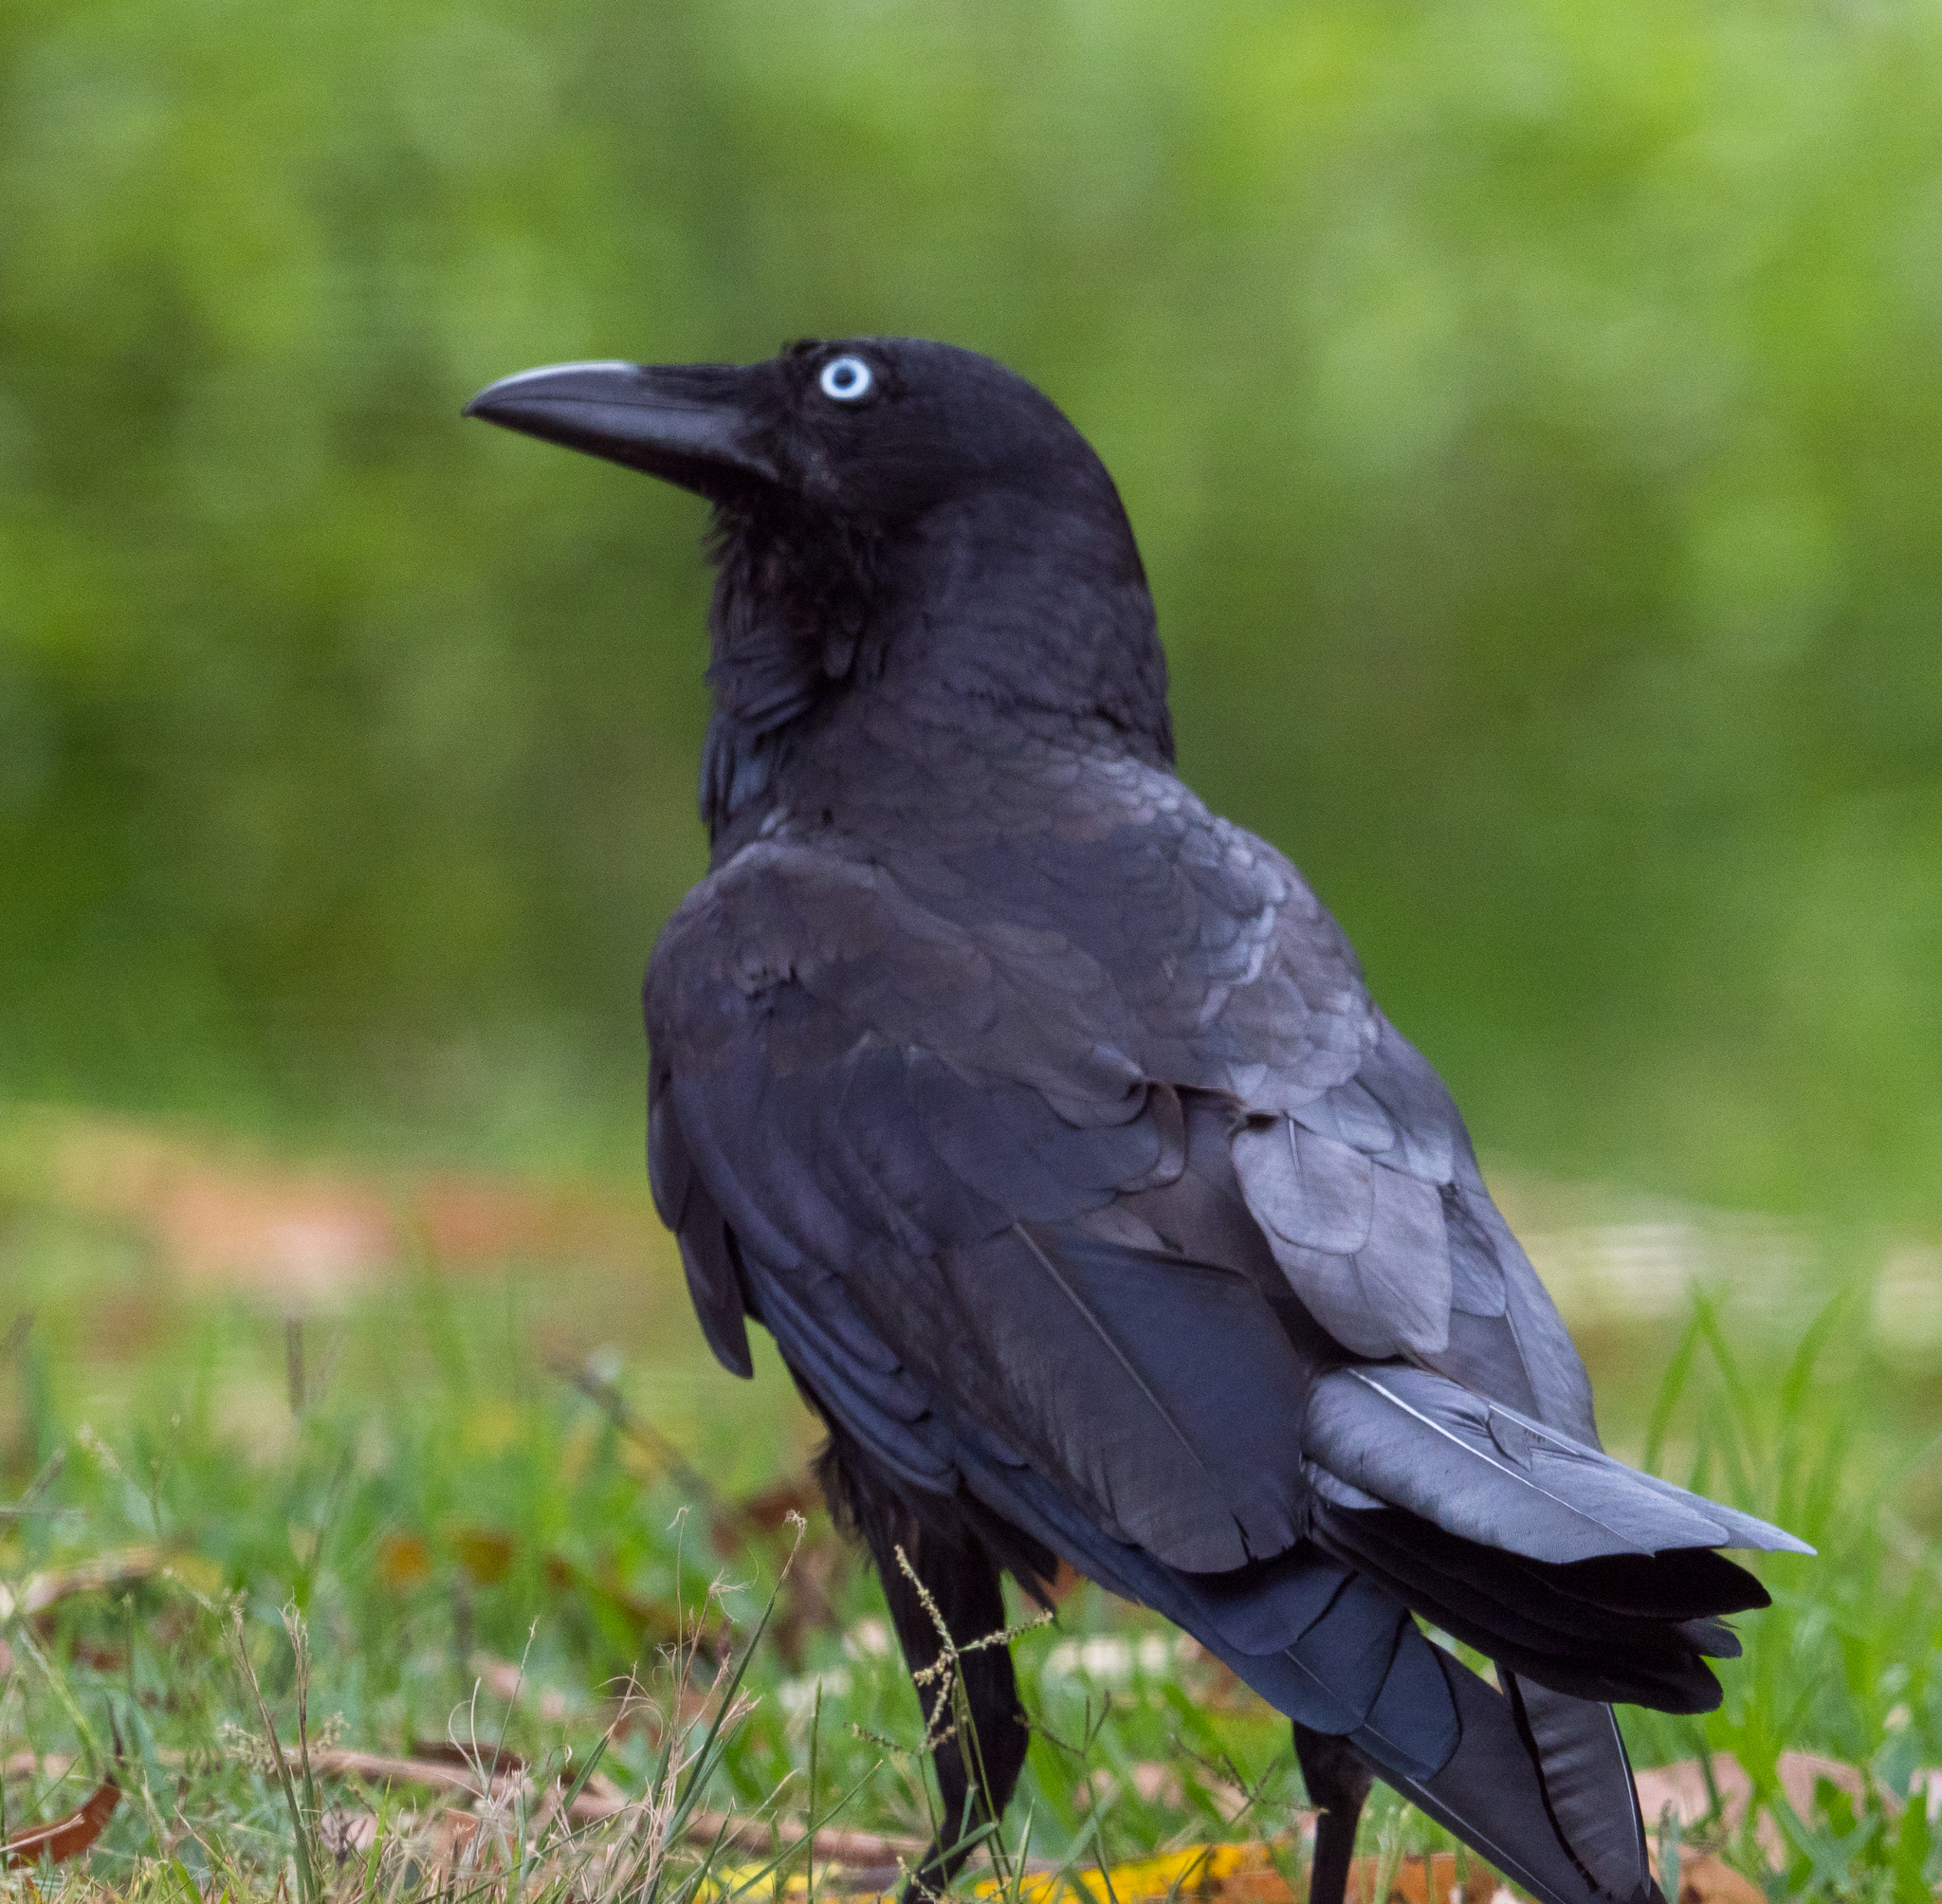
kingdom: Animalia
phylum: Chordata
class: Aves
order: Passeriformes
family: Corvidae
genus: Corvus
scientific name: Corvus coronoides
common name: Australian raven
